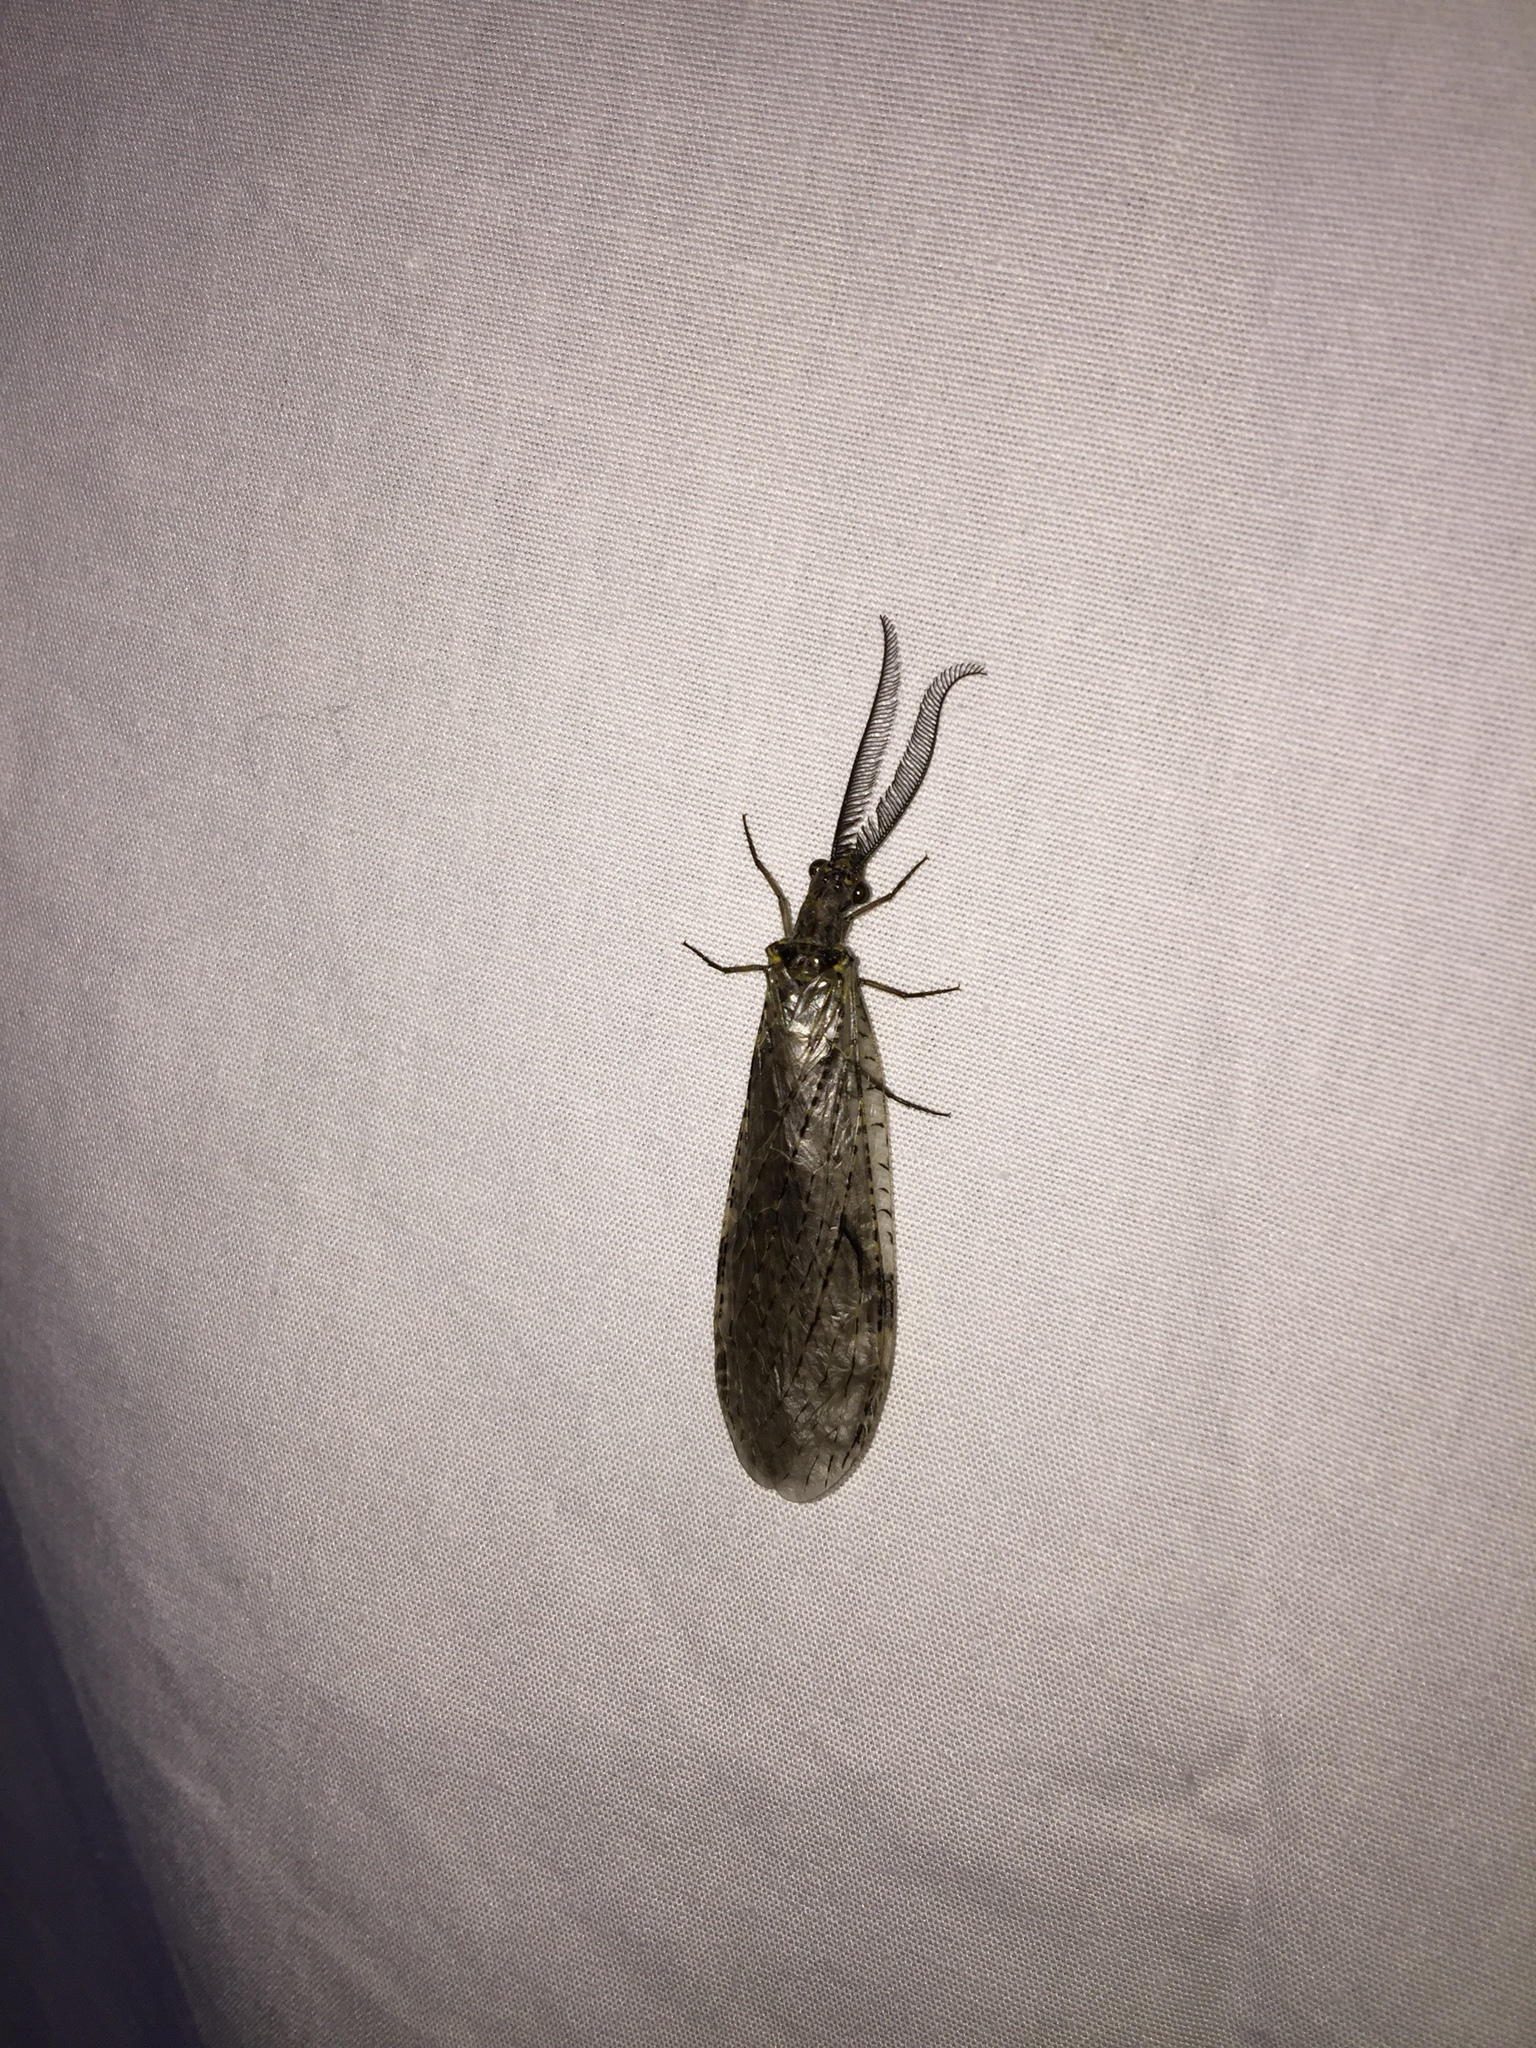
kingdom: Animalia
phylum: Arthropoda
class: Insecta
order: Megaloptera
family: Corydalidae
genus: Chauliodes
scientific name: Chauliodes rastricornis
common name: Spring fishfly
